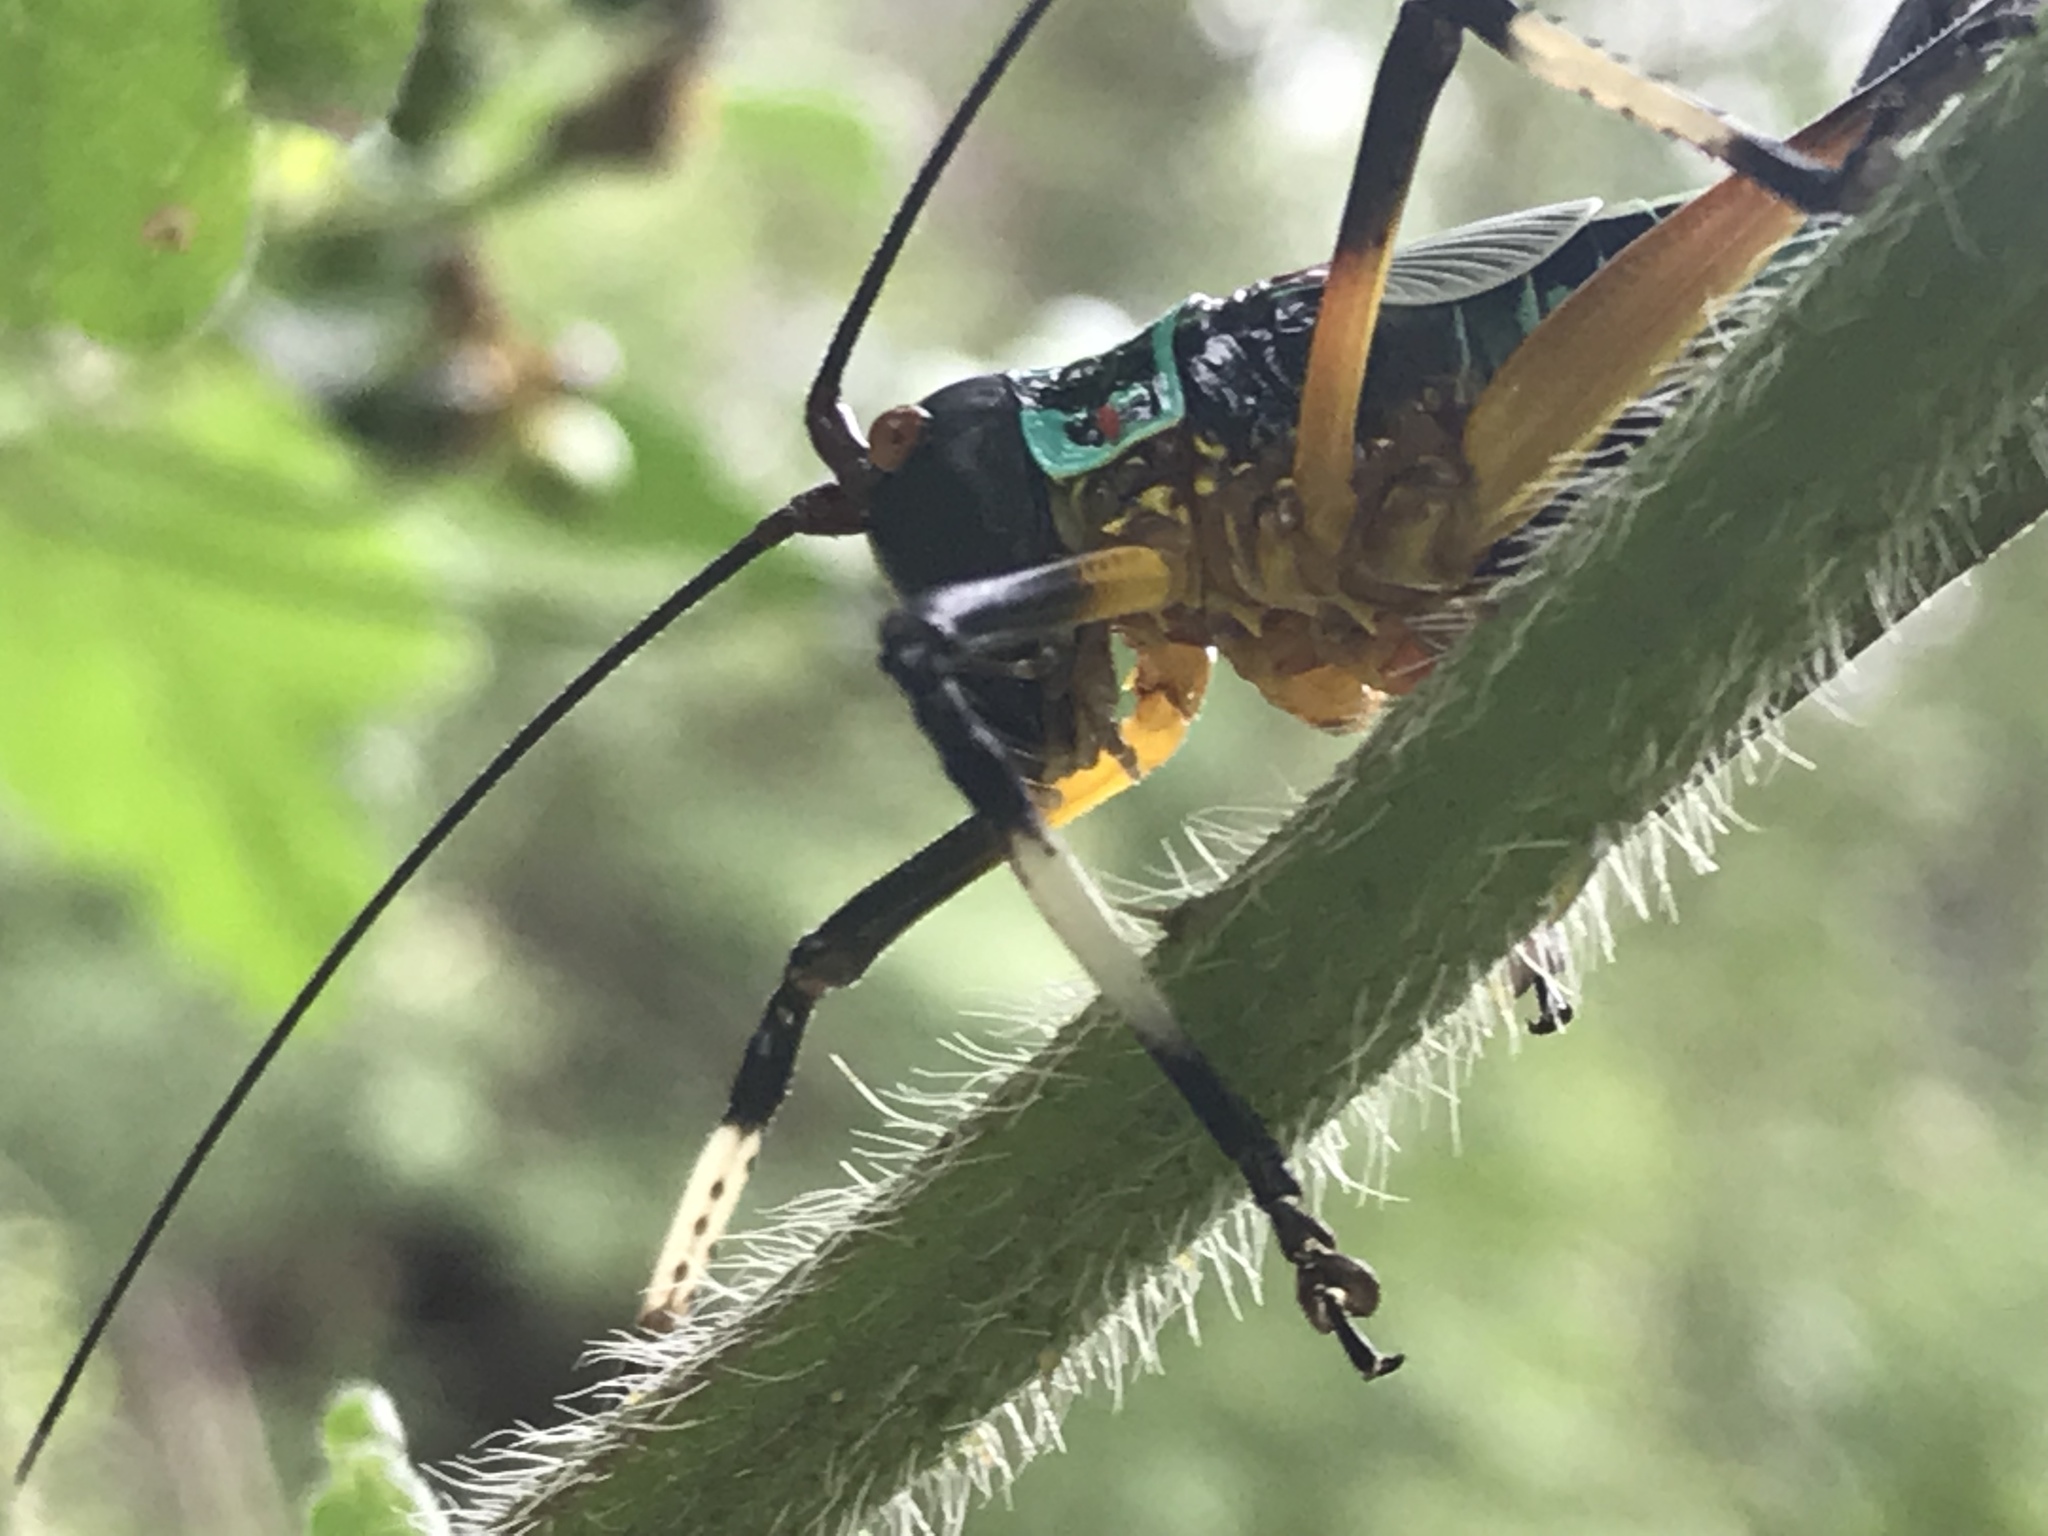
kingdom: Animalia
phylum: Arthropoda
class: Insecta
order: Orthoptera
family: Tettigoniidae
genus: Pterophylla
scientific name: Pterophylla beltrani
